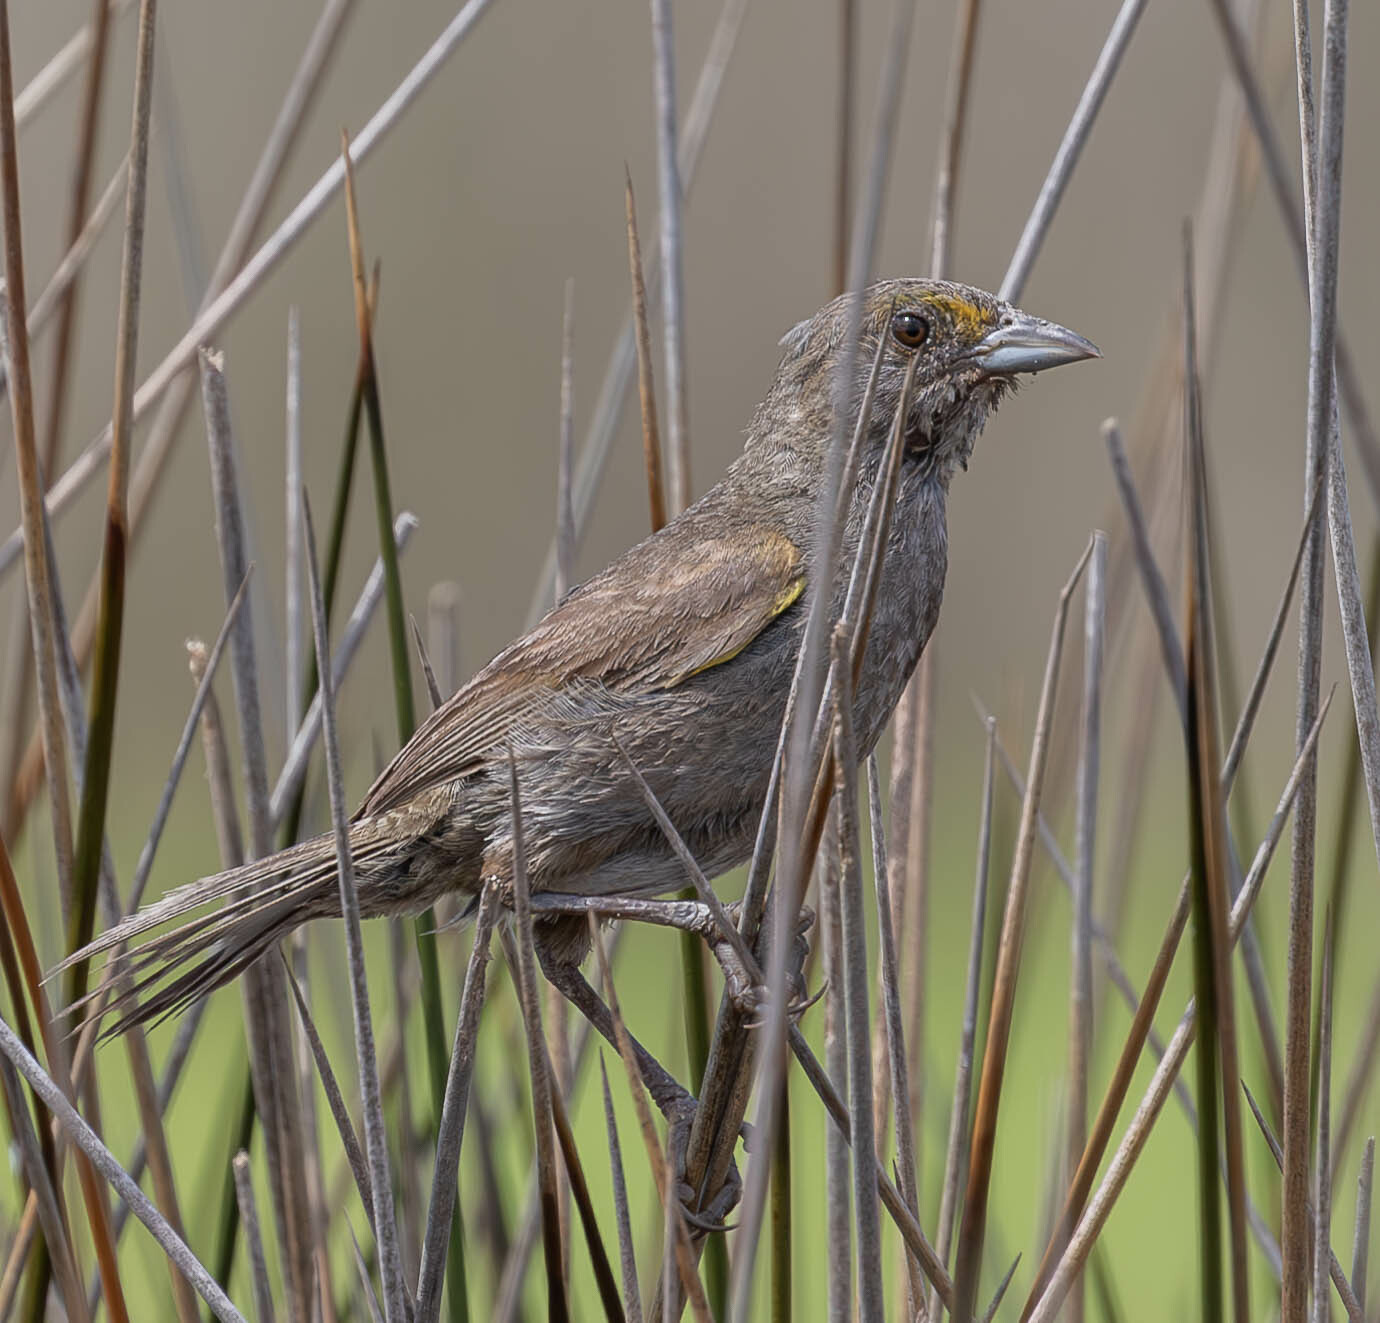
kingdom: Animalia
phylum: Chordata
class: Aves
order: Passeriformes
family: Passerellidae
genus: Ammospiza
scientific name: Ammospiza maritima
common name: Seaside sparrow
